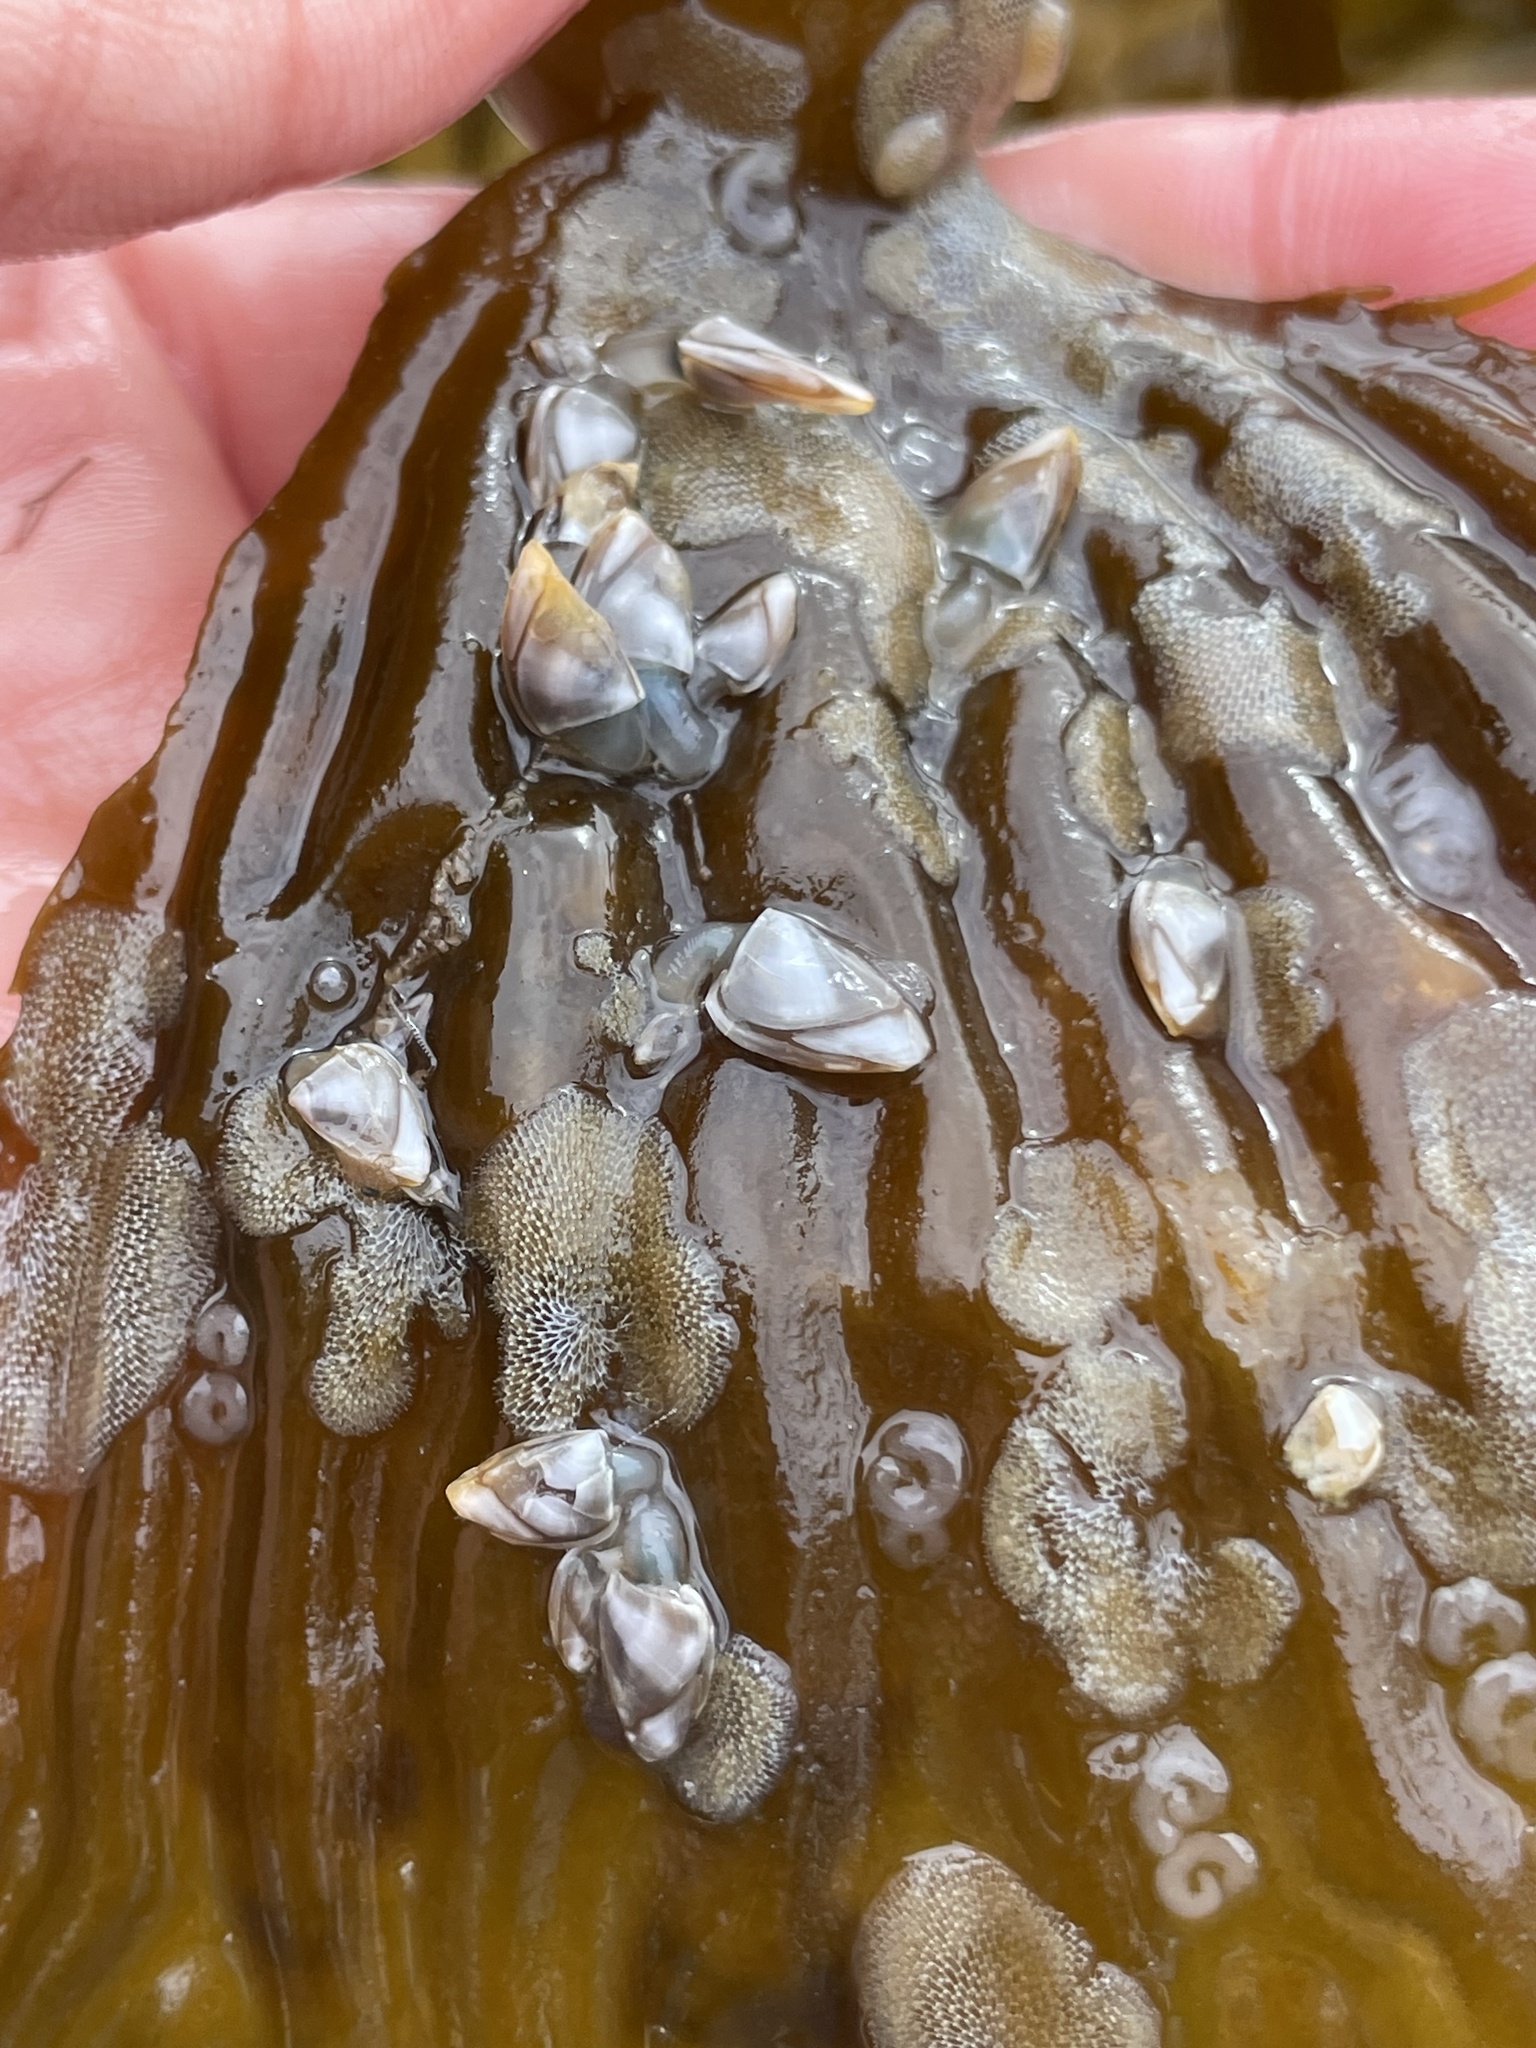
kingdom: Animalia
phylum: Arthropoda
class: Maxillopoda
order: Pedunculata
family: Lepadidae
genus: Lepas
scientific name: Lepas pacifica
